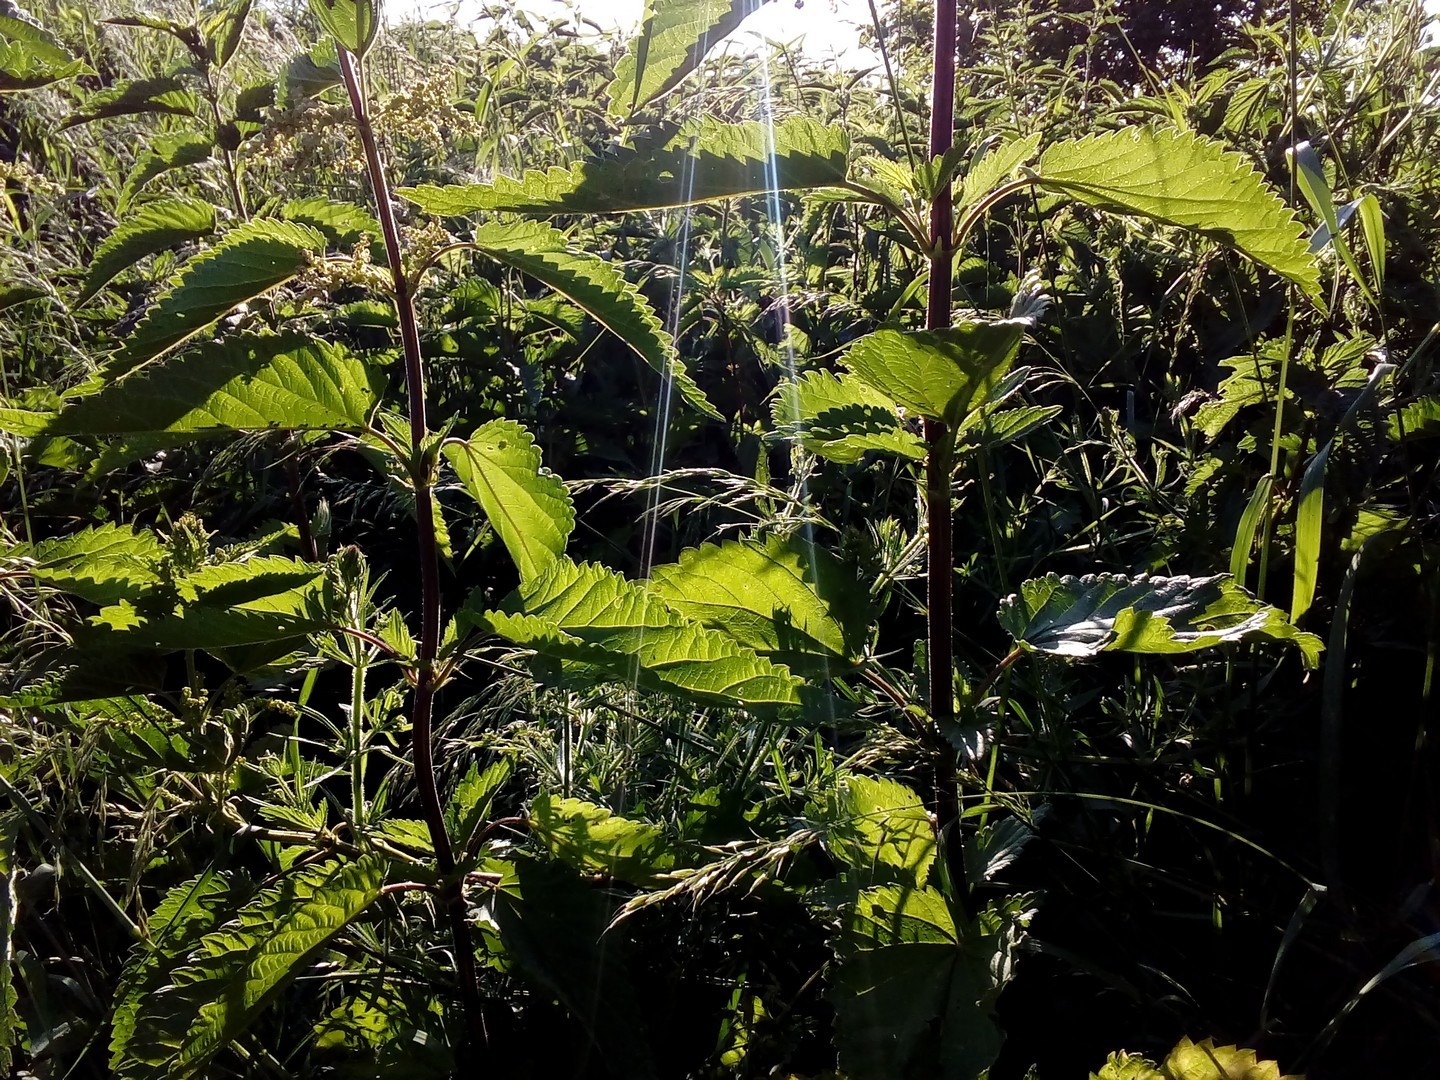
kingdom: Plantae
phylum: Tracheophyta
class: Magnoliopsida
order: Rosales
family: Urticaceae
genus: Urtica
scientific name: Urtica dioica
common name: Common nettle
